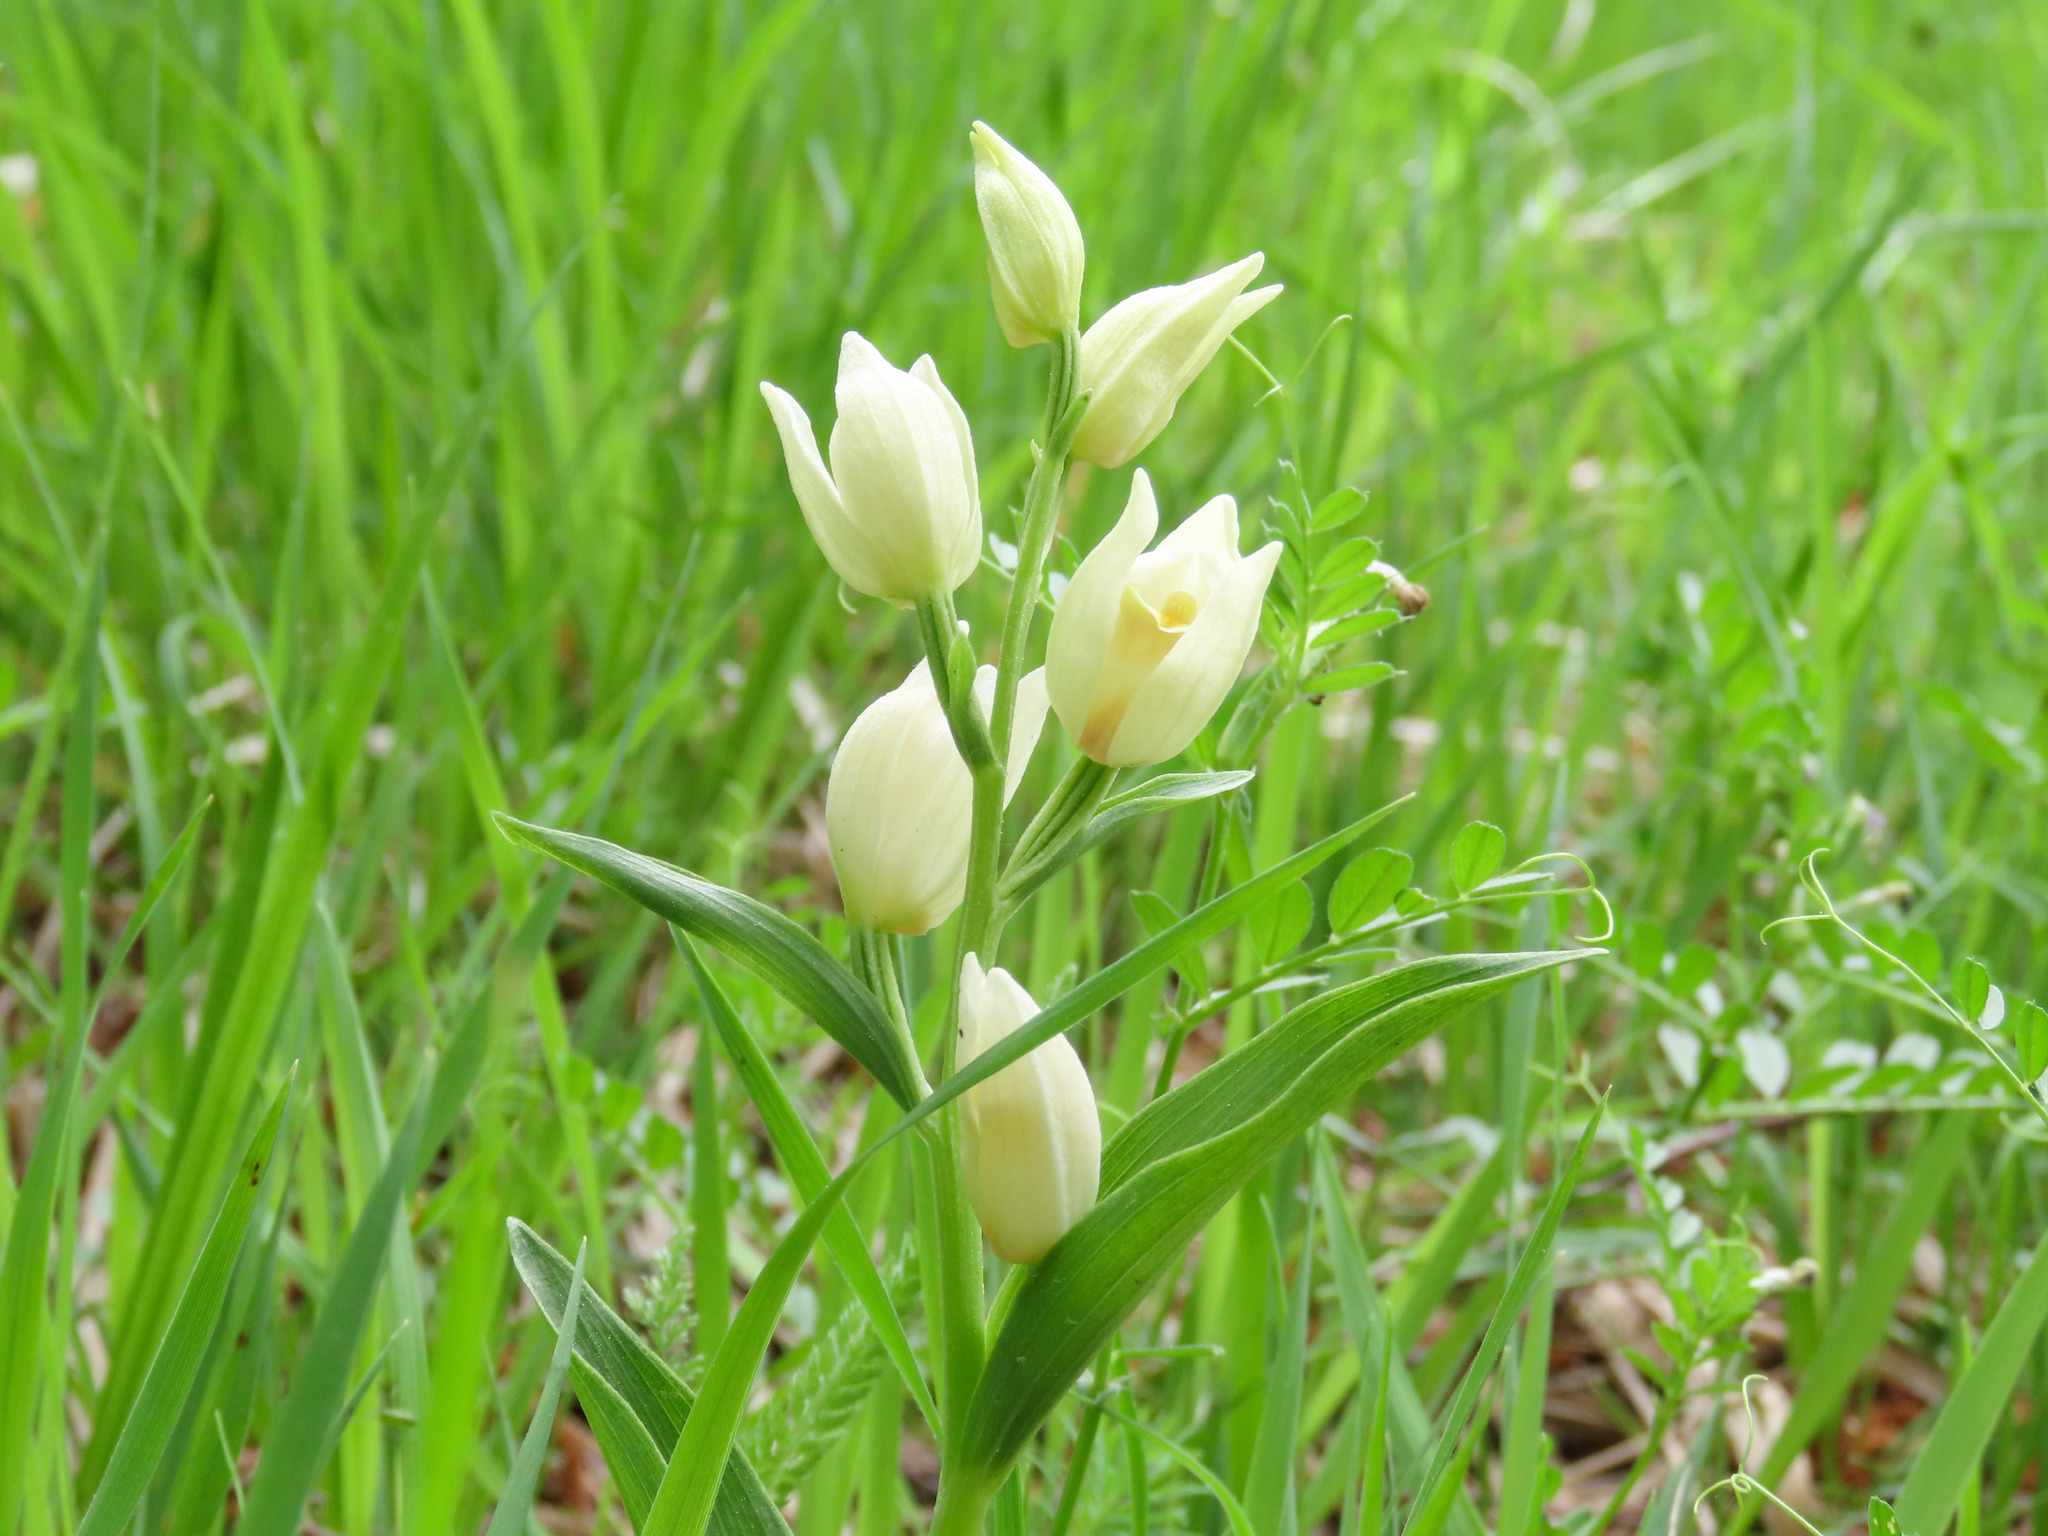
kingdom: Plantae
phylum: Tracheophyta
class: Liliopsida
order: Asparagales
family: Orchidaceae
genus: Cephalanthera
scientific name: Cephalanthera damasonium
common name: White helleborine
